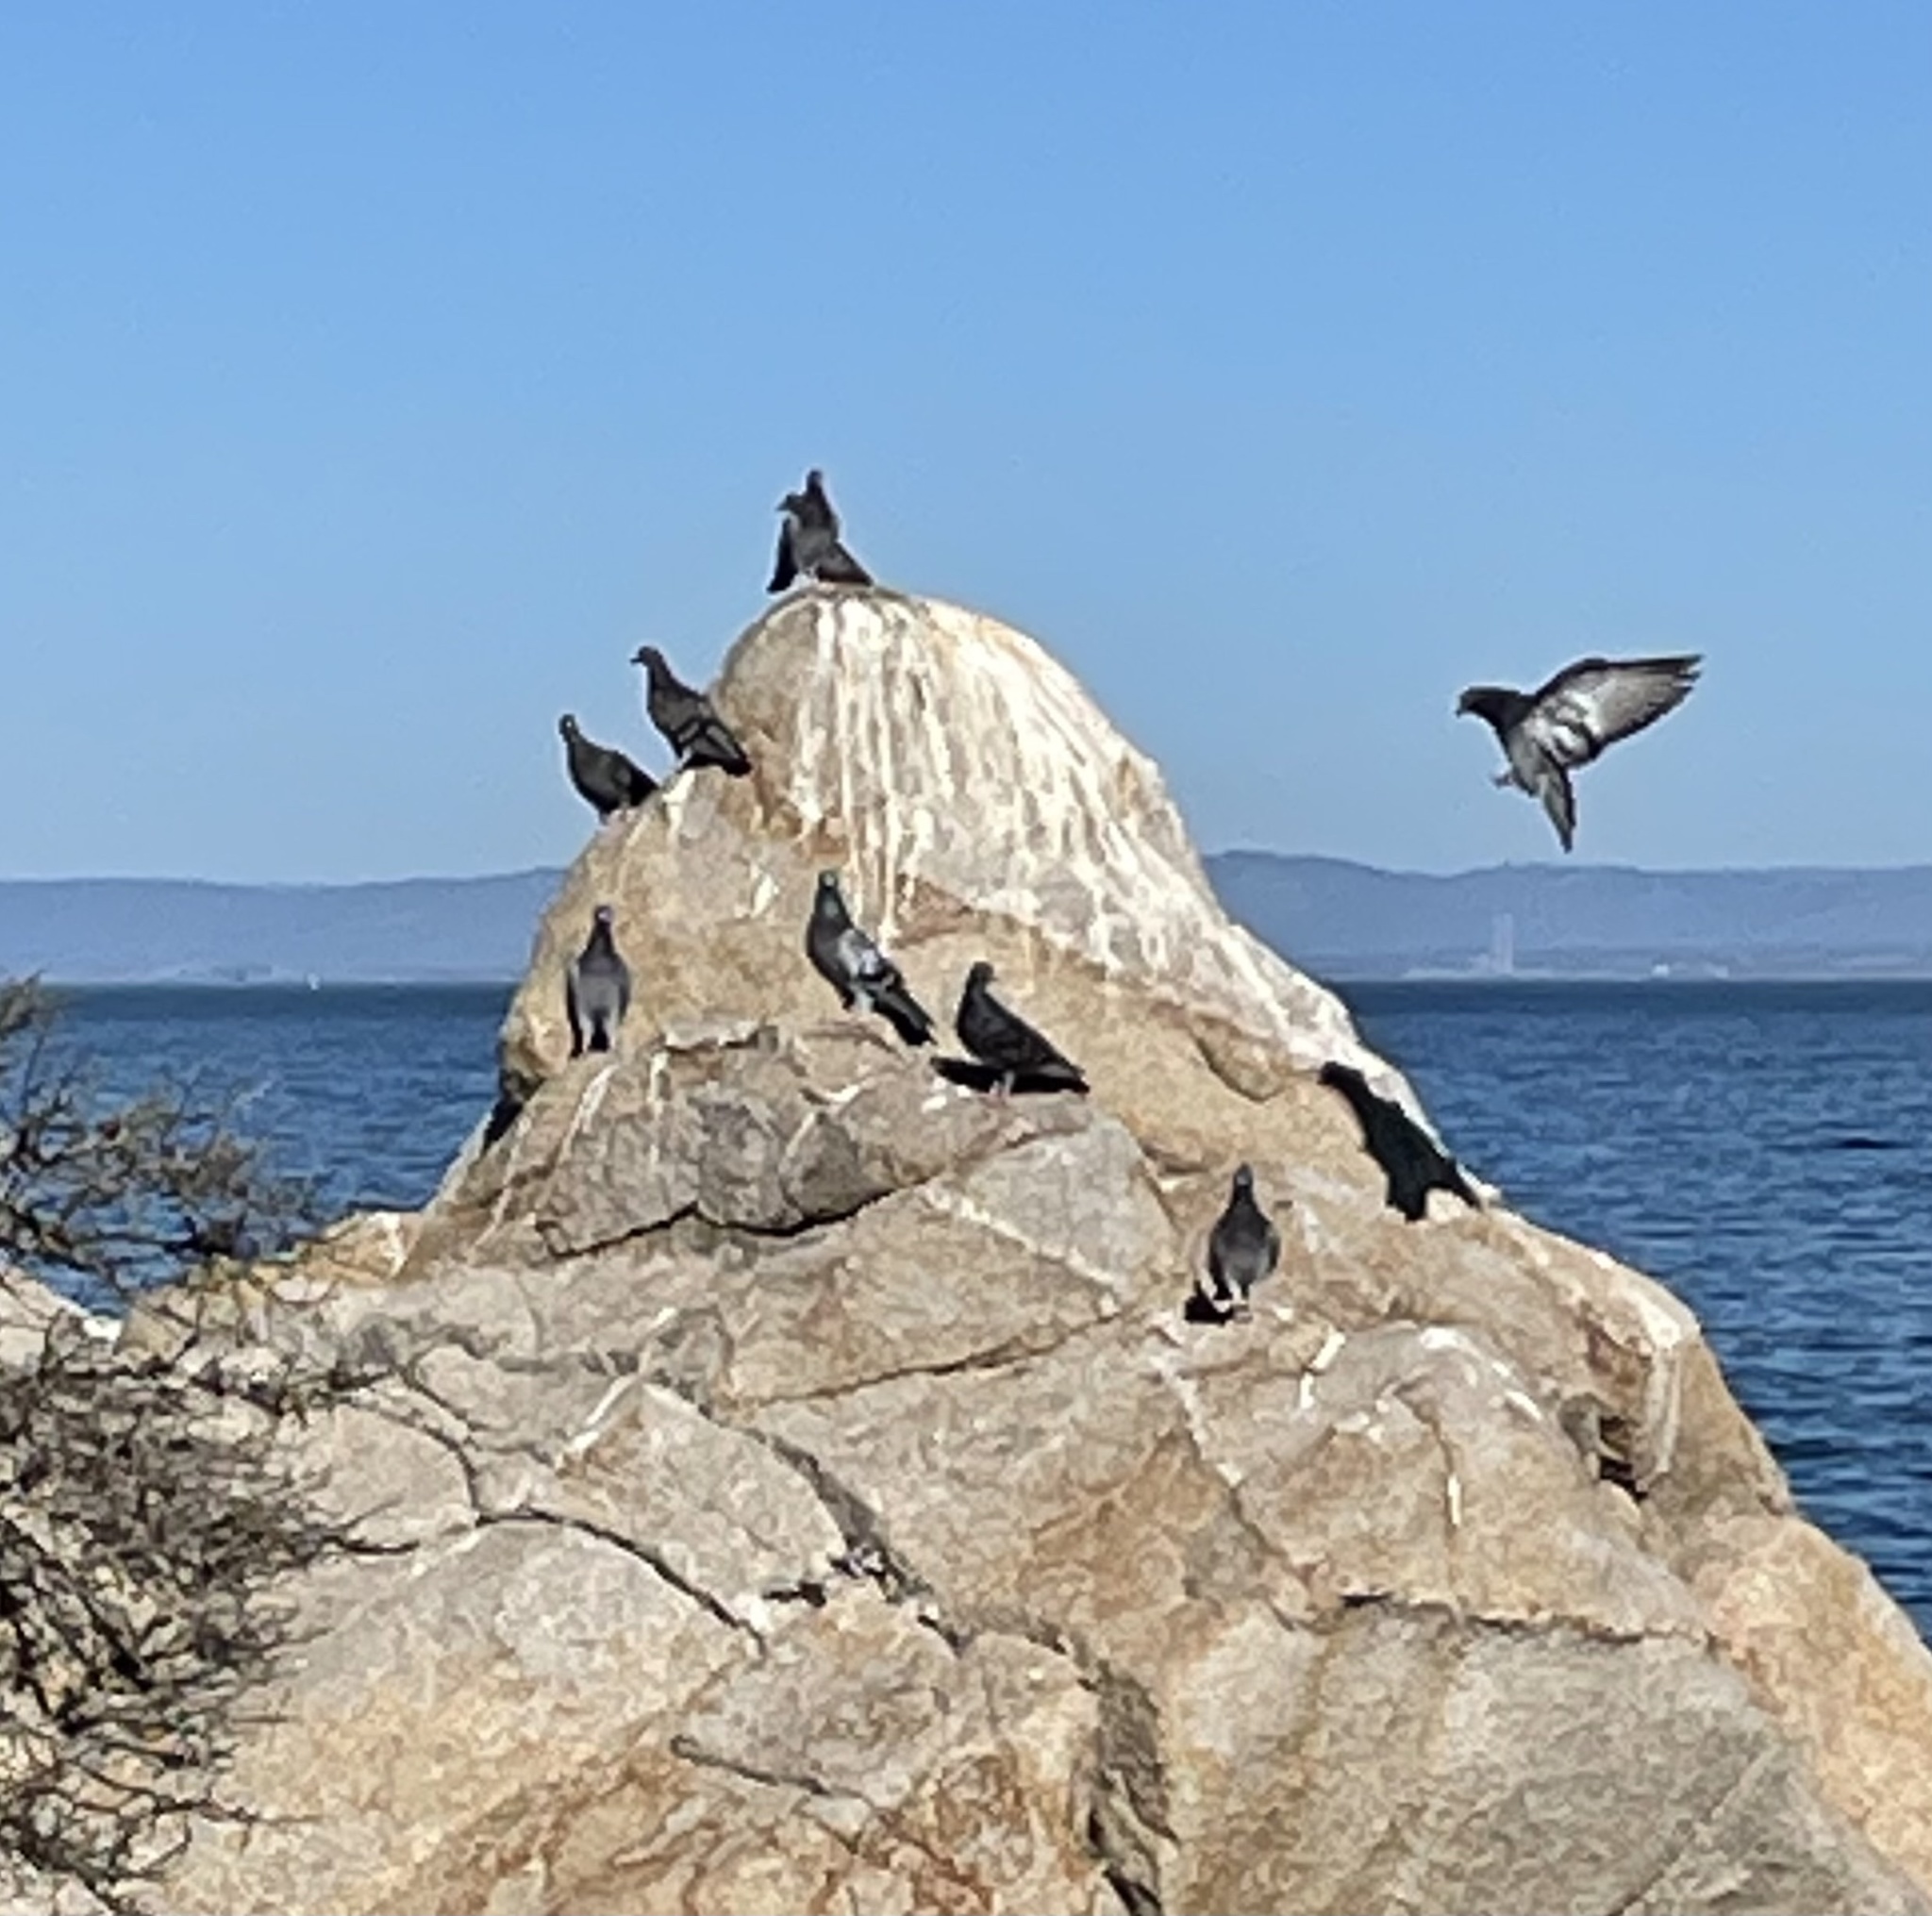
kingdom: Animalia
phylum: Chordata
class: Aves
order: Columbiformes
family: Columbidae
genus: Columba
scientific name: Columba livia
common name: Rock pigeon
